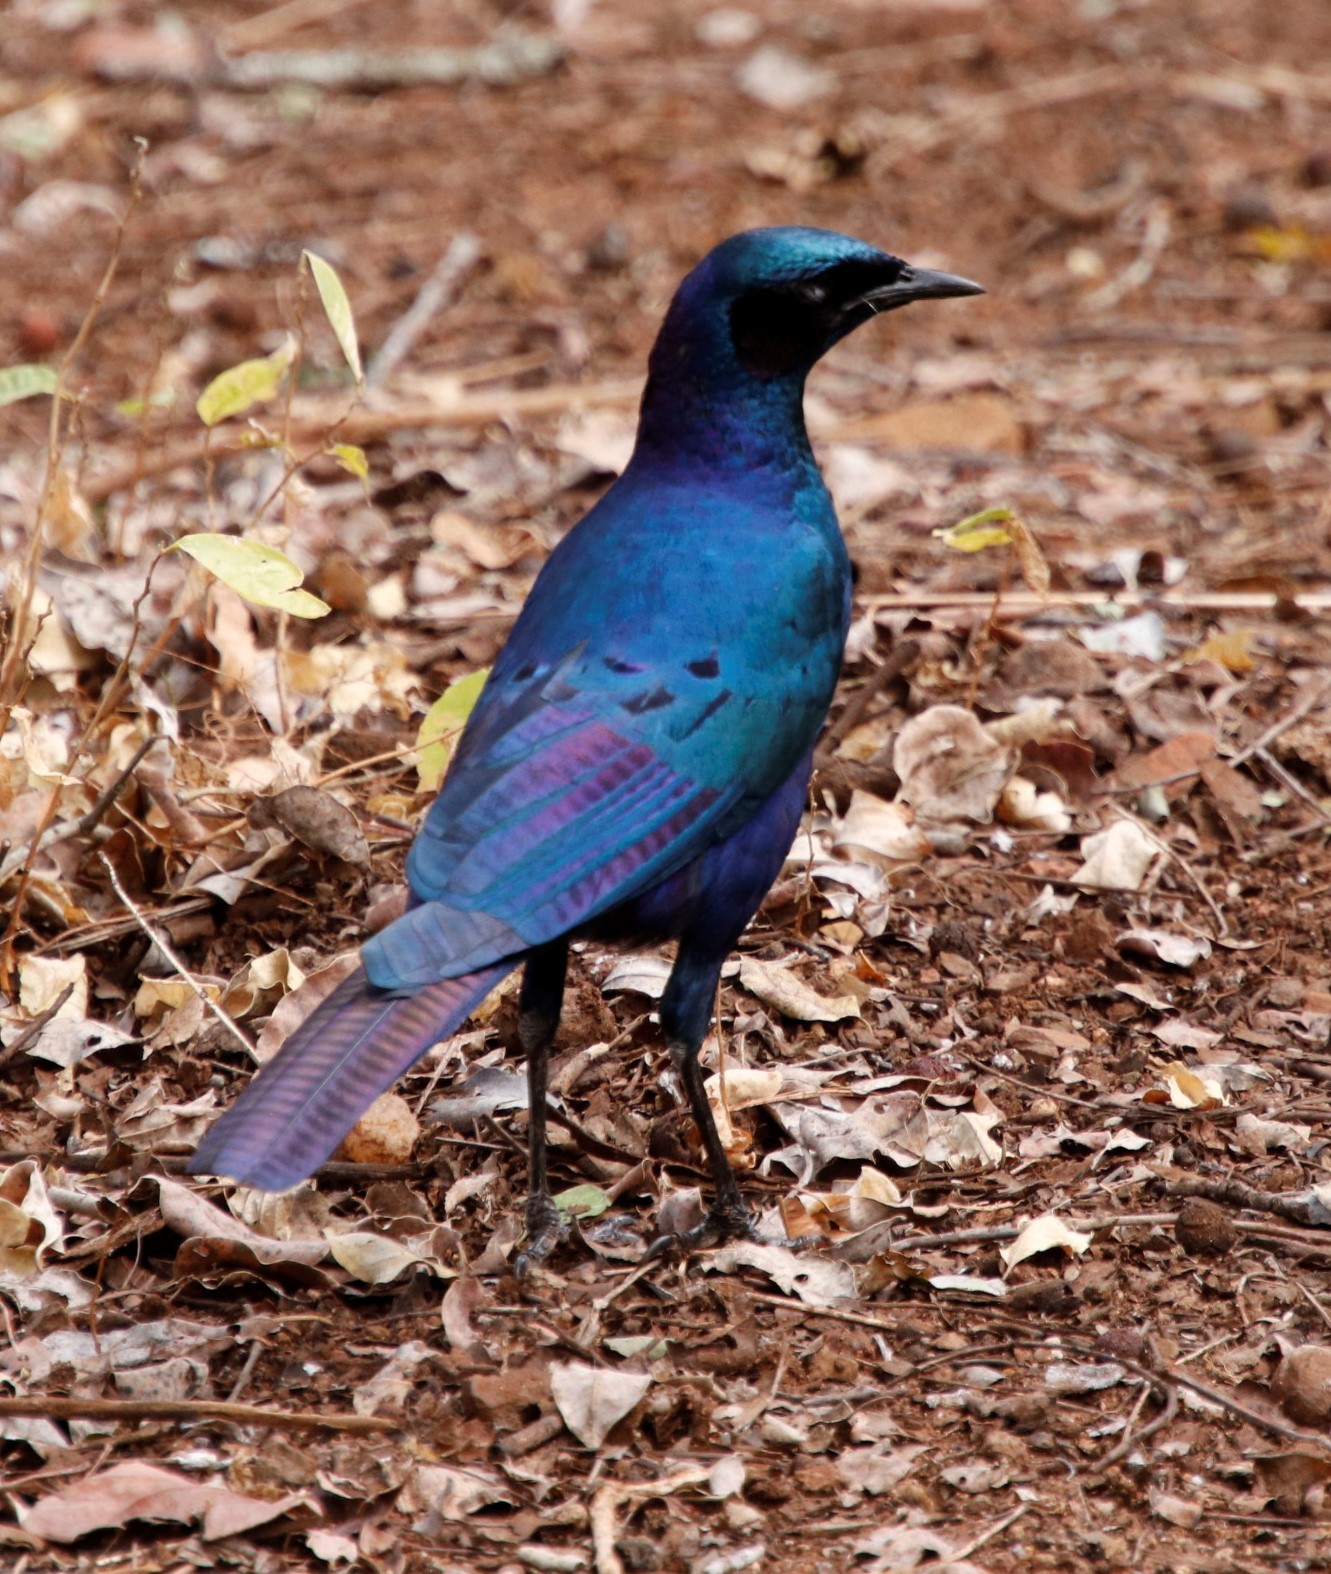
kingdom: Animalia
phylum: Chordata
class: Aves
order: Passeriformes
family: Sturnidae
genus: Lamprotornis
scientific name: Lamprotornis australis
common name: Burchell's starling
